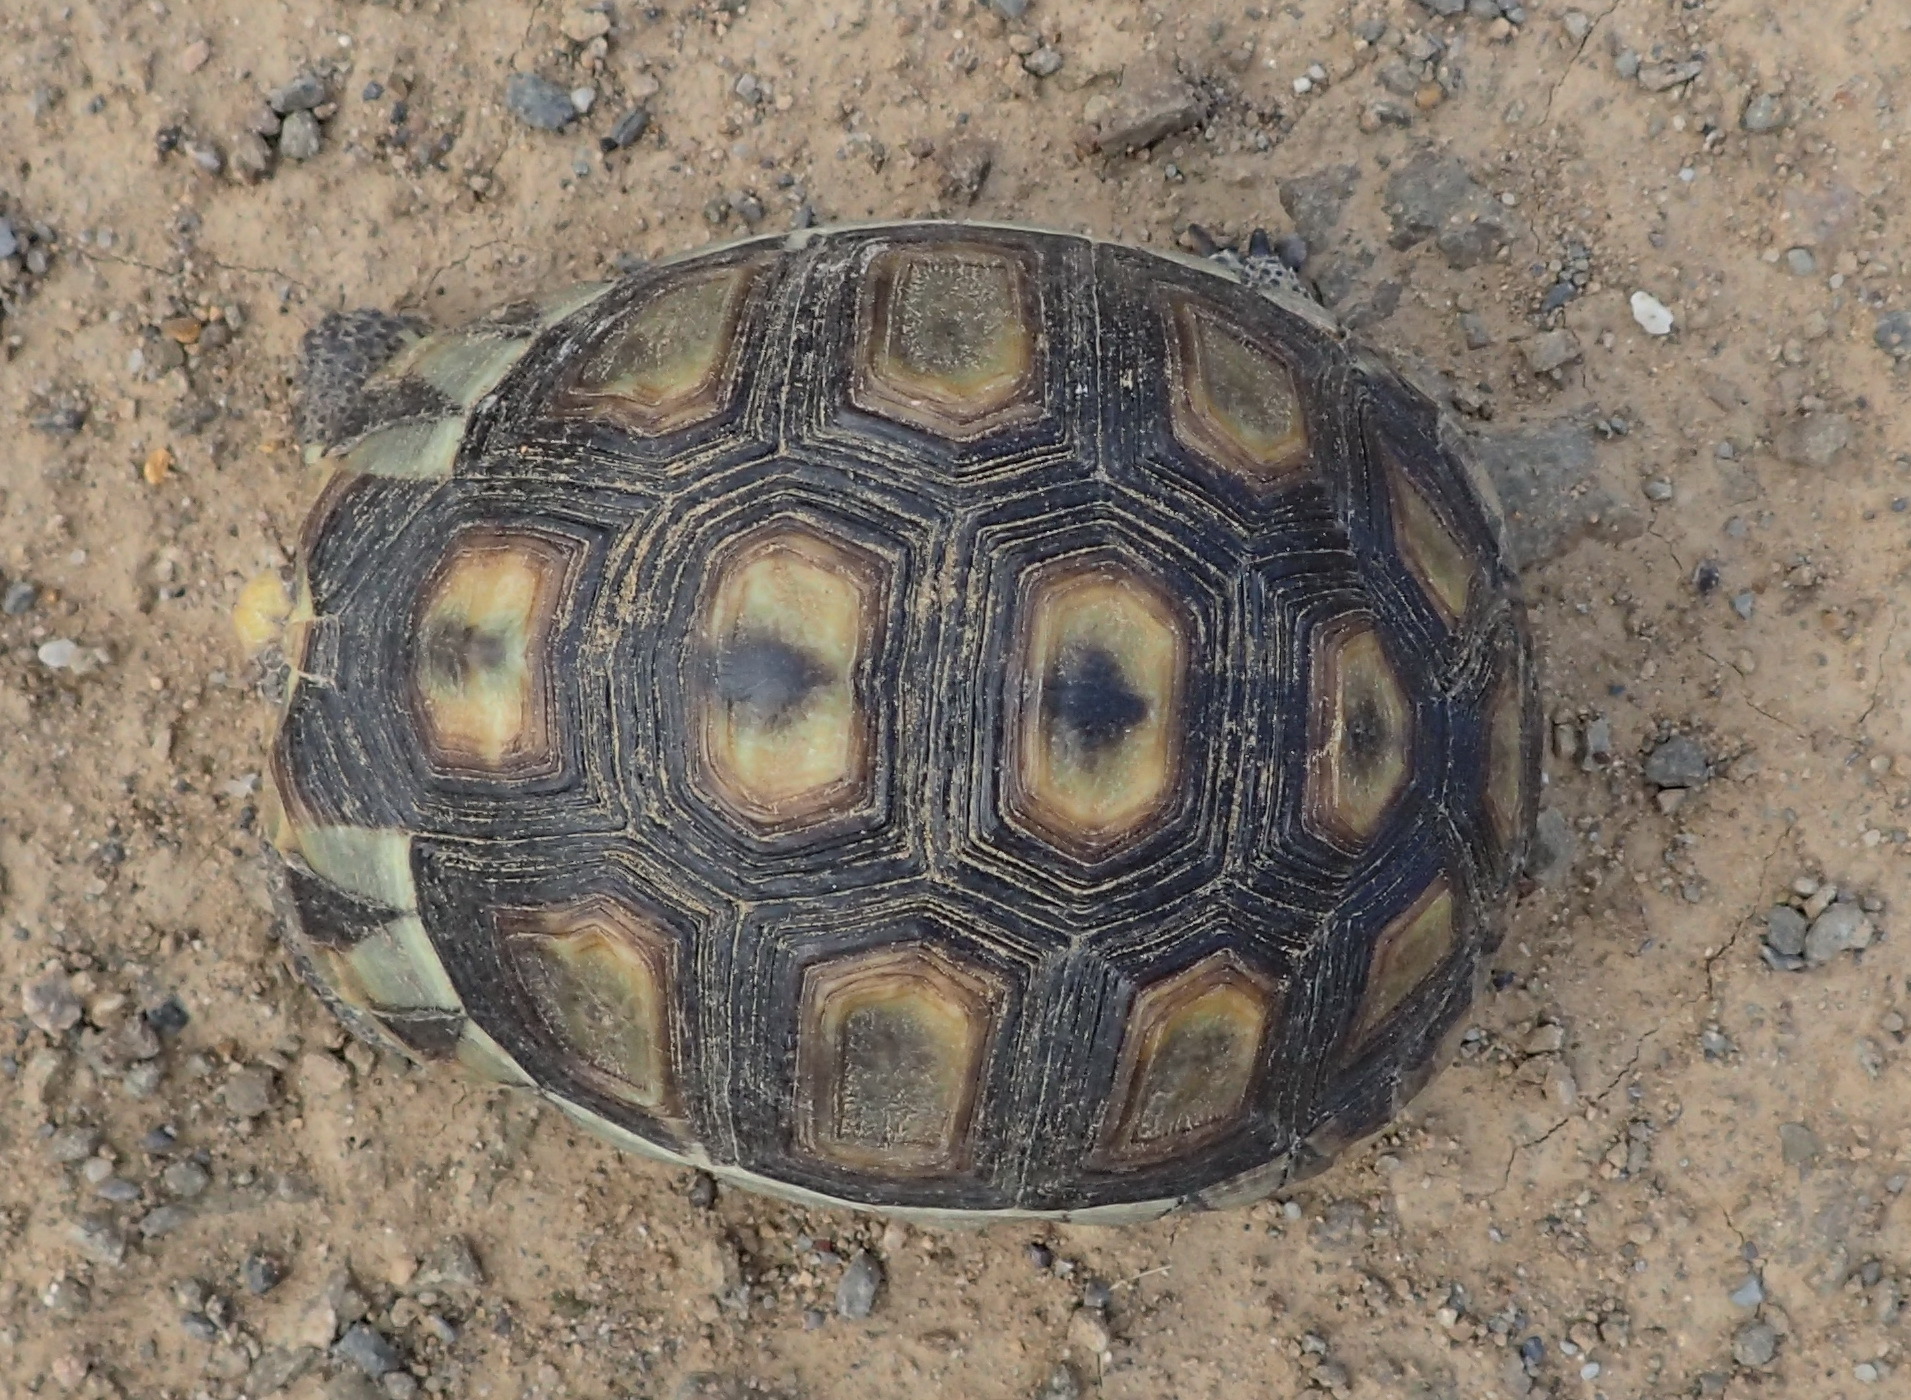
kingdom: Animalia
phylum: Chordata
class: Testudines
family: Testudinidae
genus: Chersina
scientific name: Chersina angulata
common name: South african bowsprit tortoise
